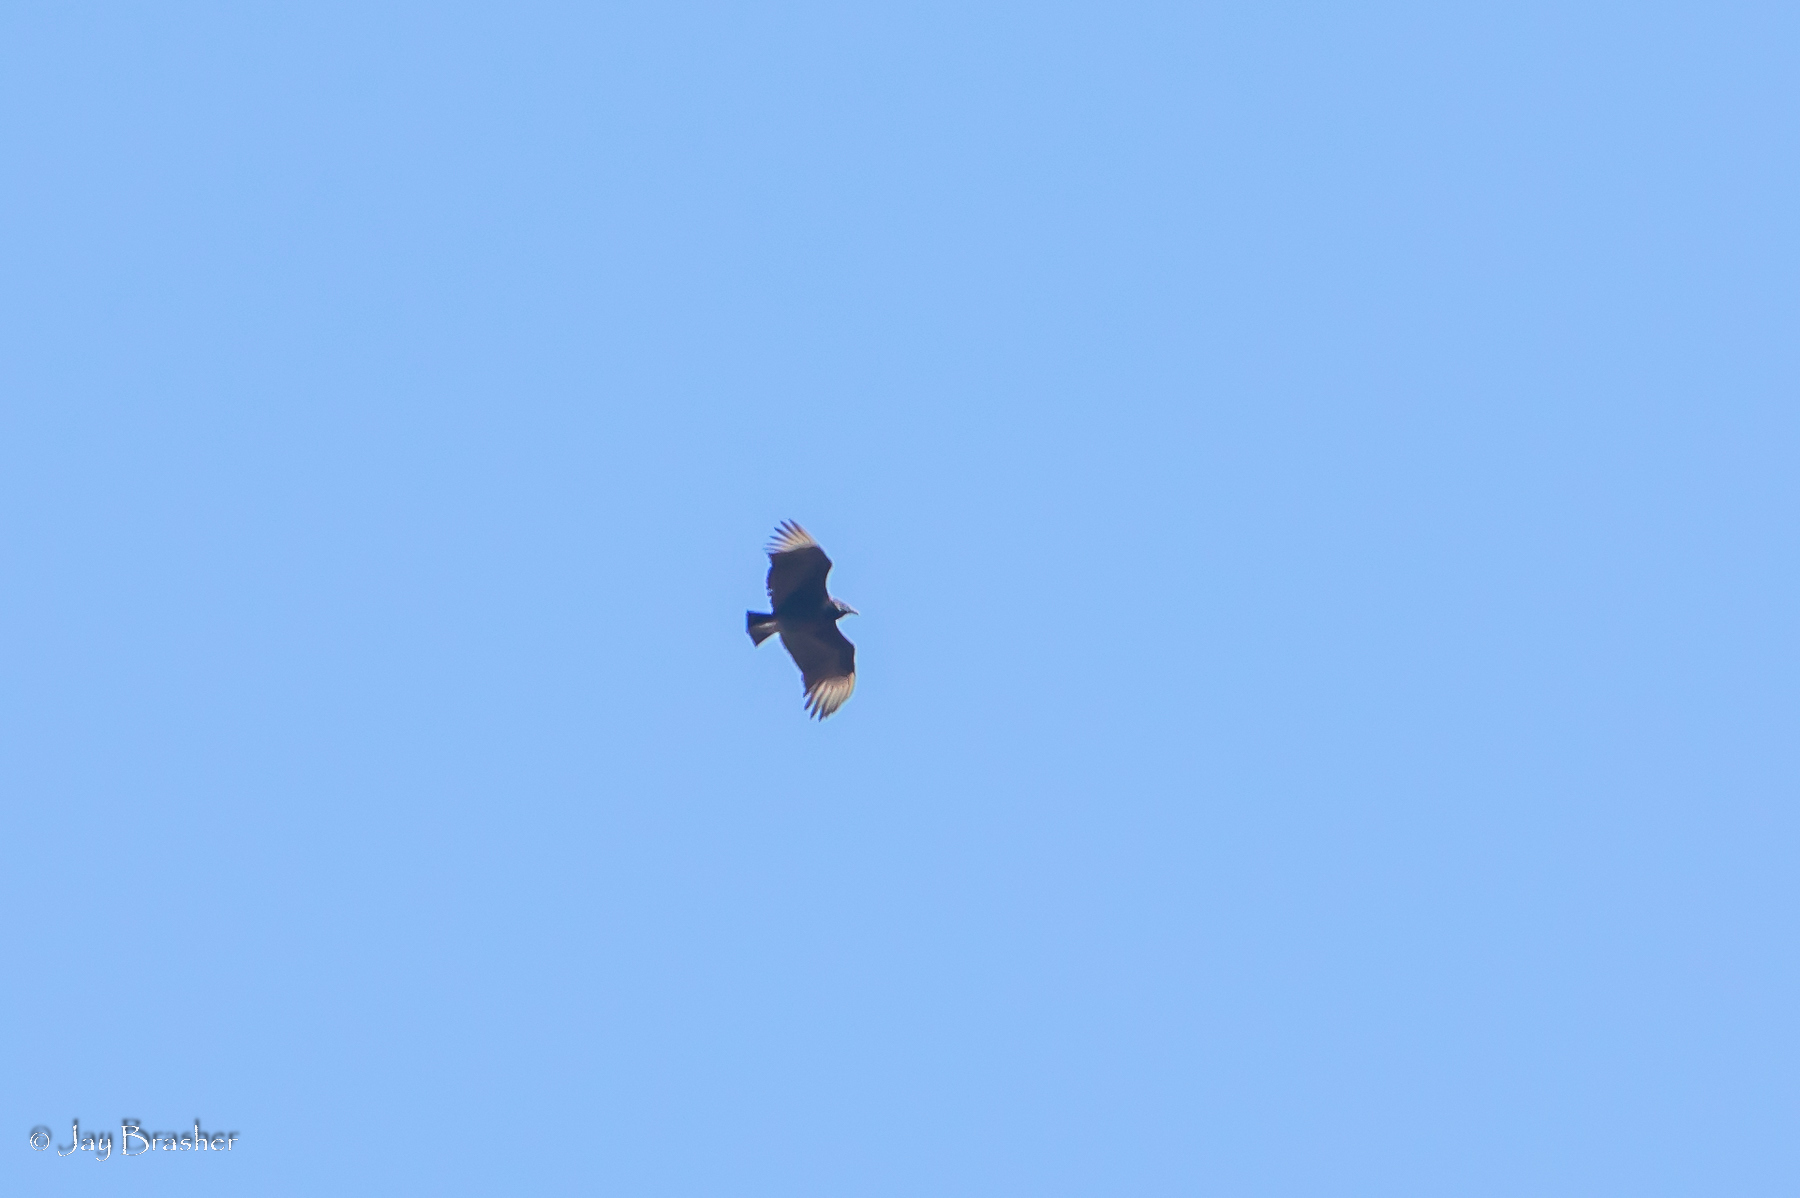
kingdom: Animalia
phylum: Chordata
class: Aves
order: Accipitriformes
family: Cathartidae
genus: Coragyps
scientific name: Coragyps atratus
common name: Black vulture
